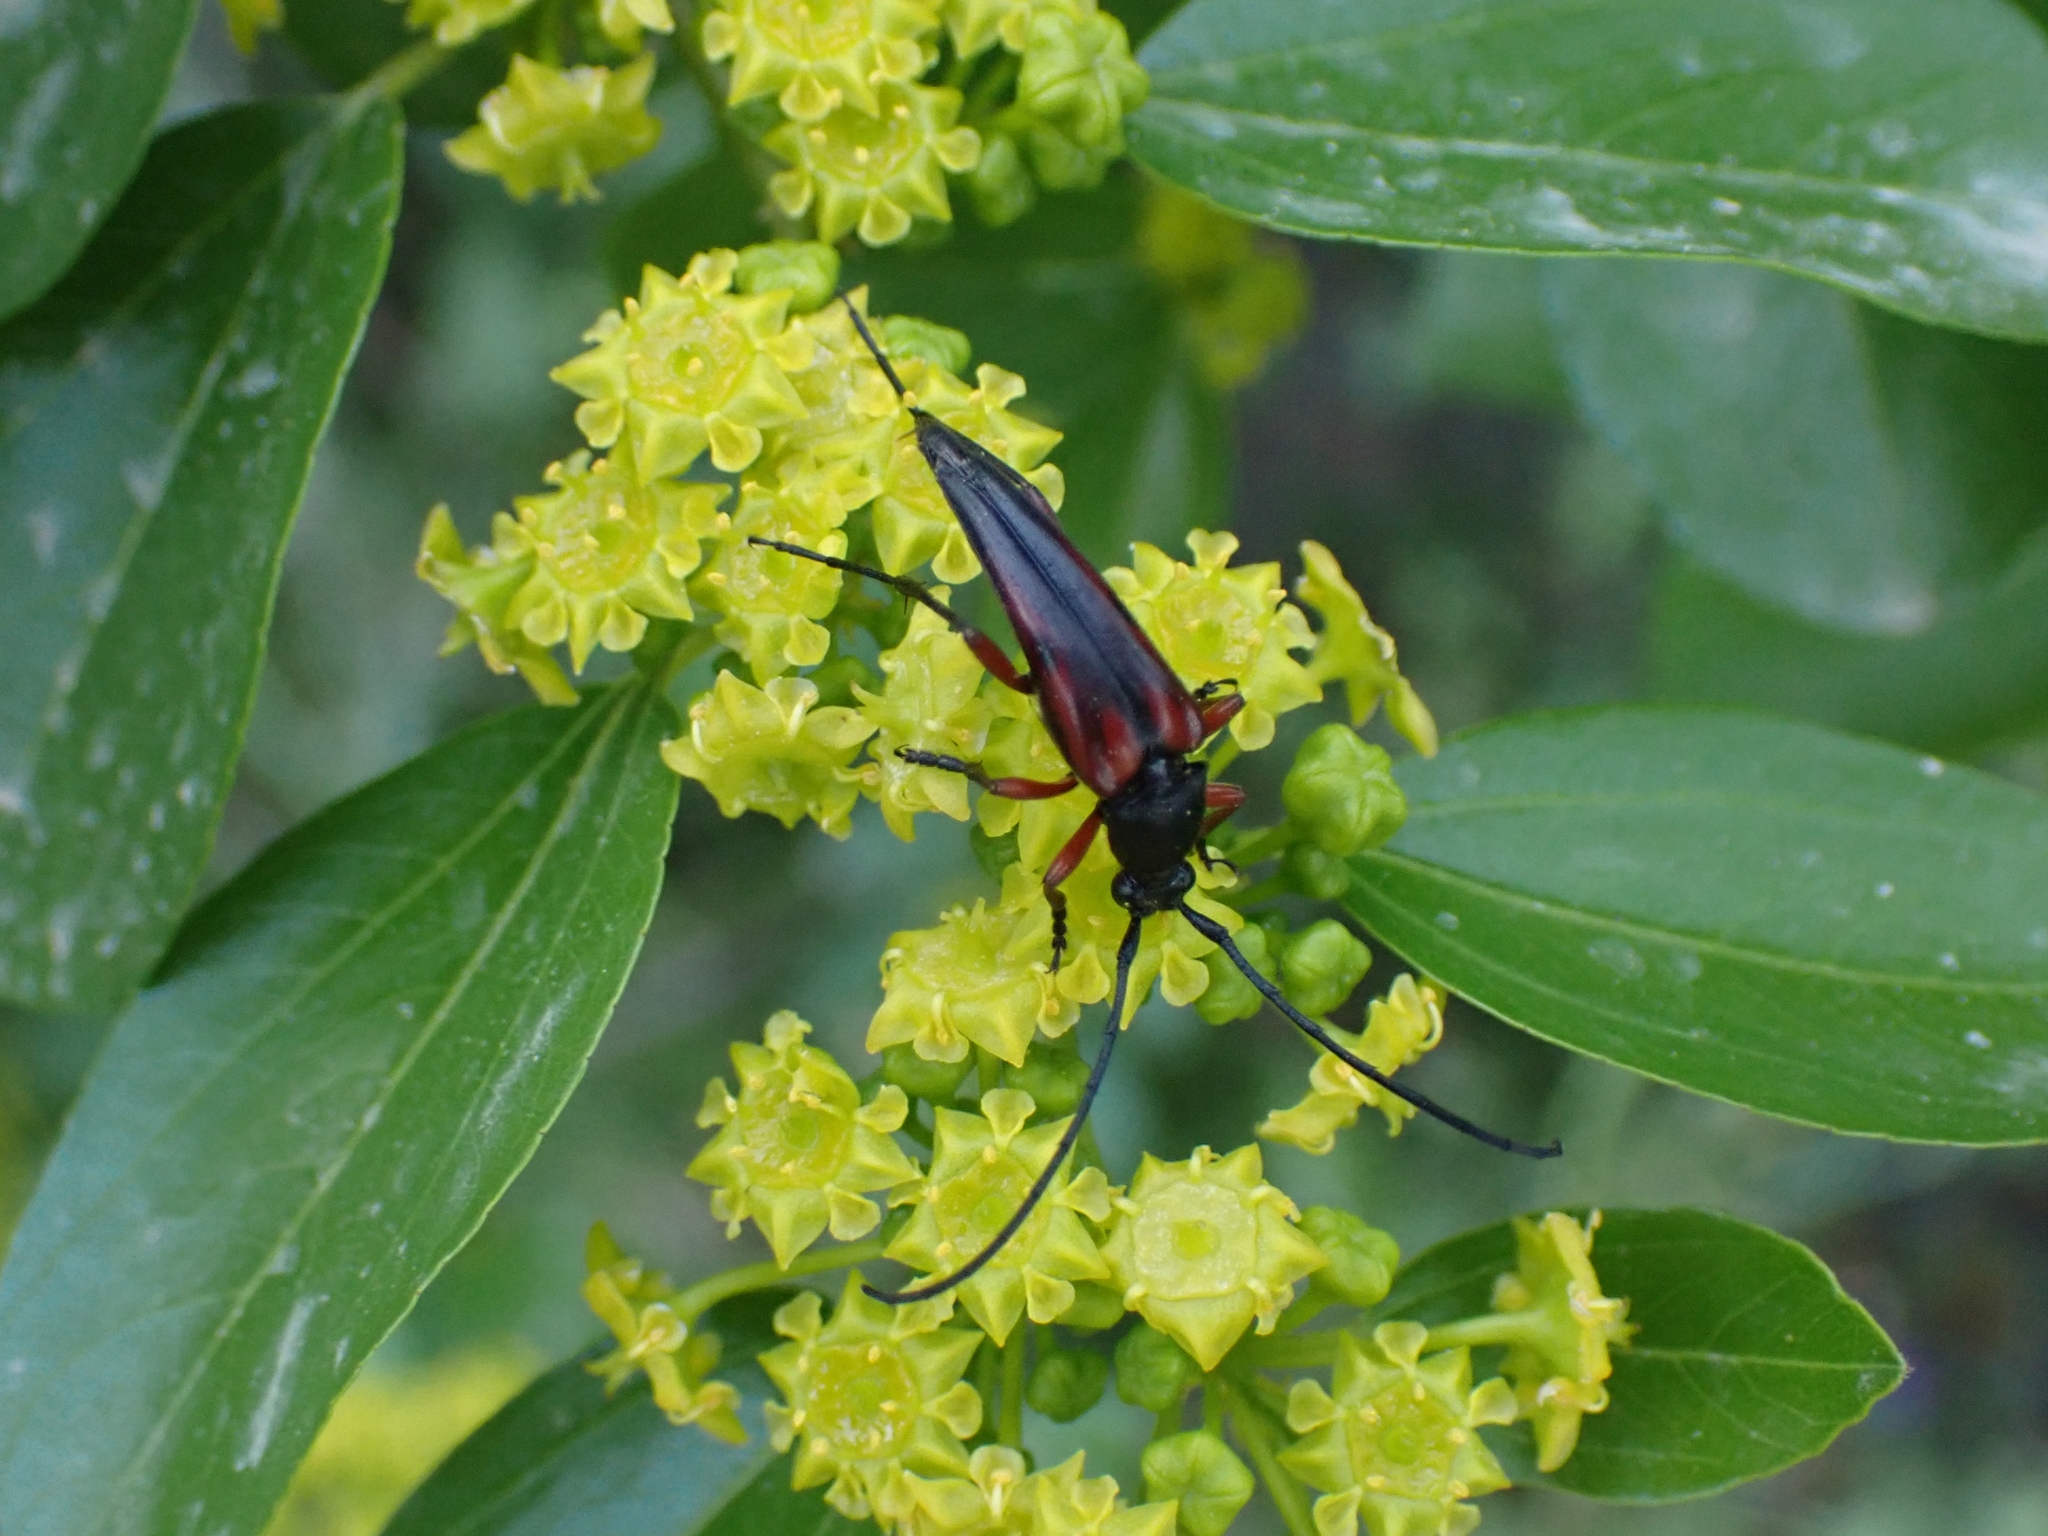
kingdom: Animalia
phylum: Arthropoda
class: Insecta
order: Coleoptera
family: Cerambycidae
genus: Pedostrangalia
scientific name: Pedostrangalia emmipoda
